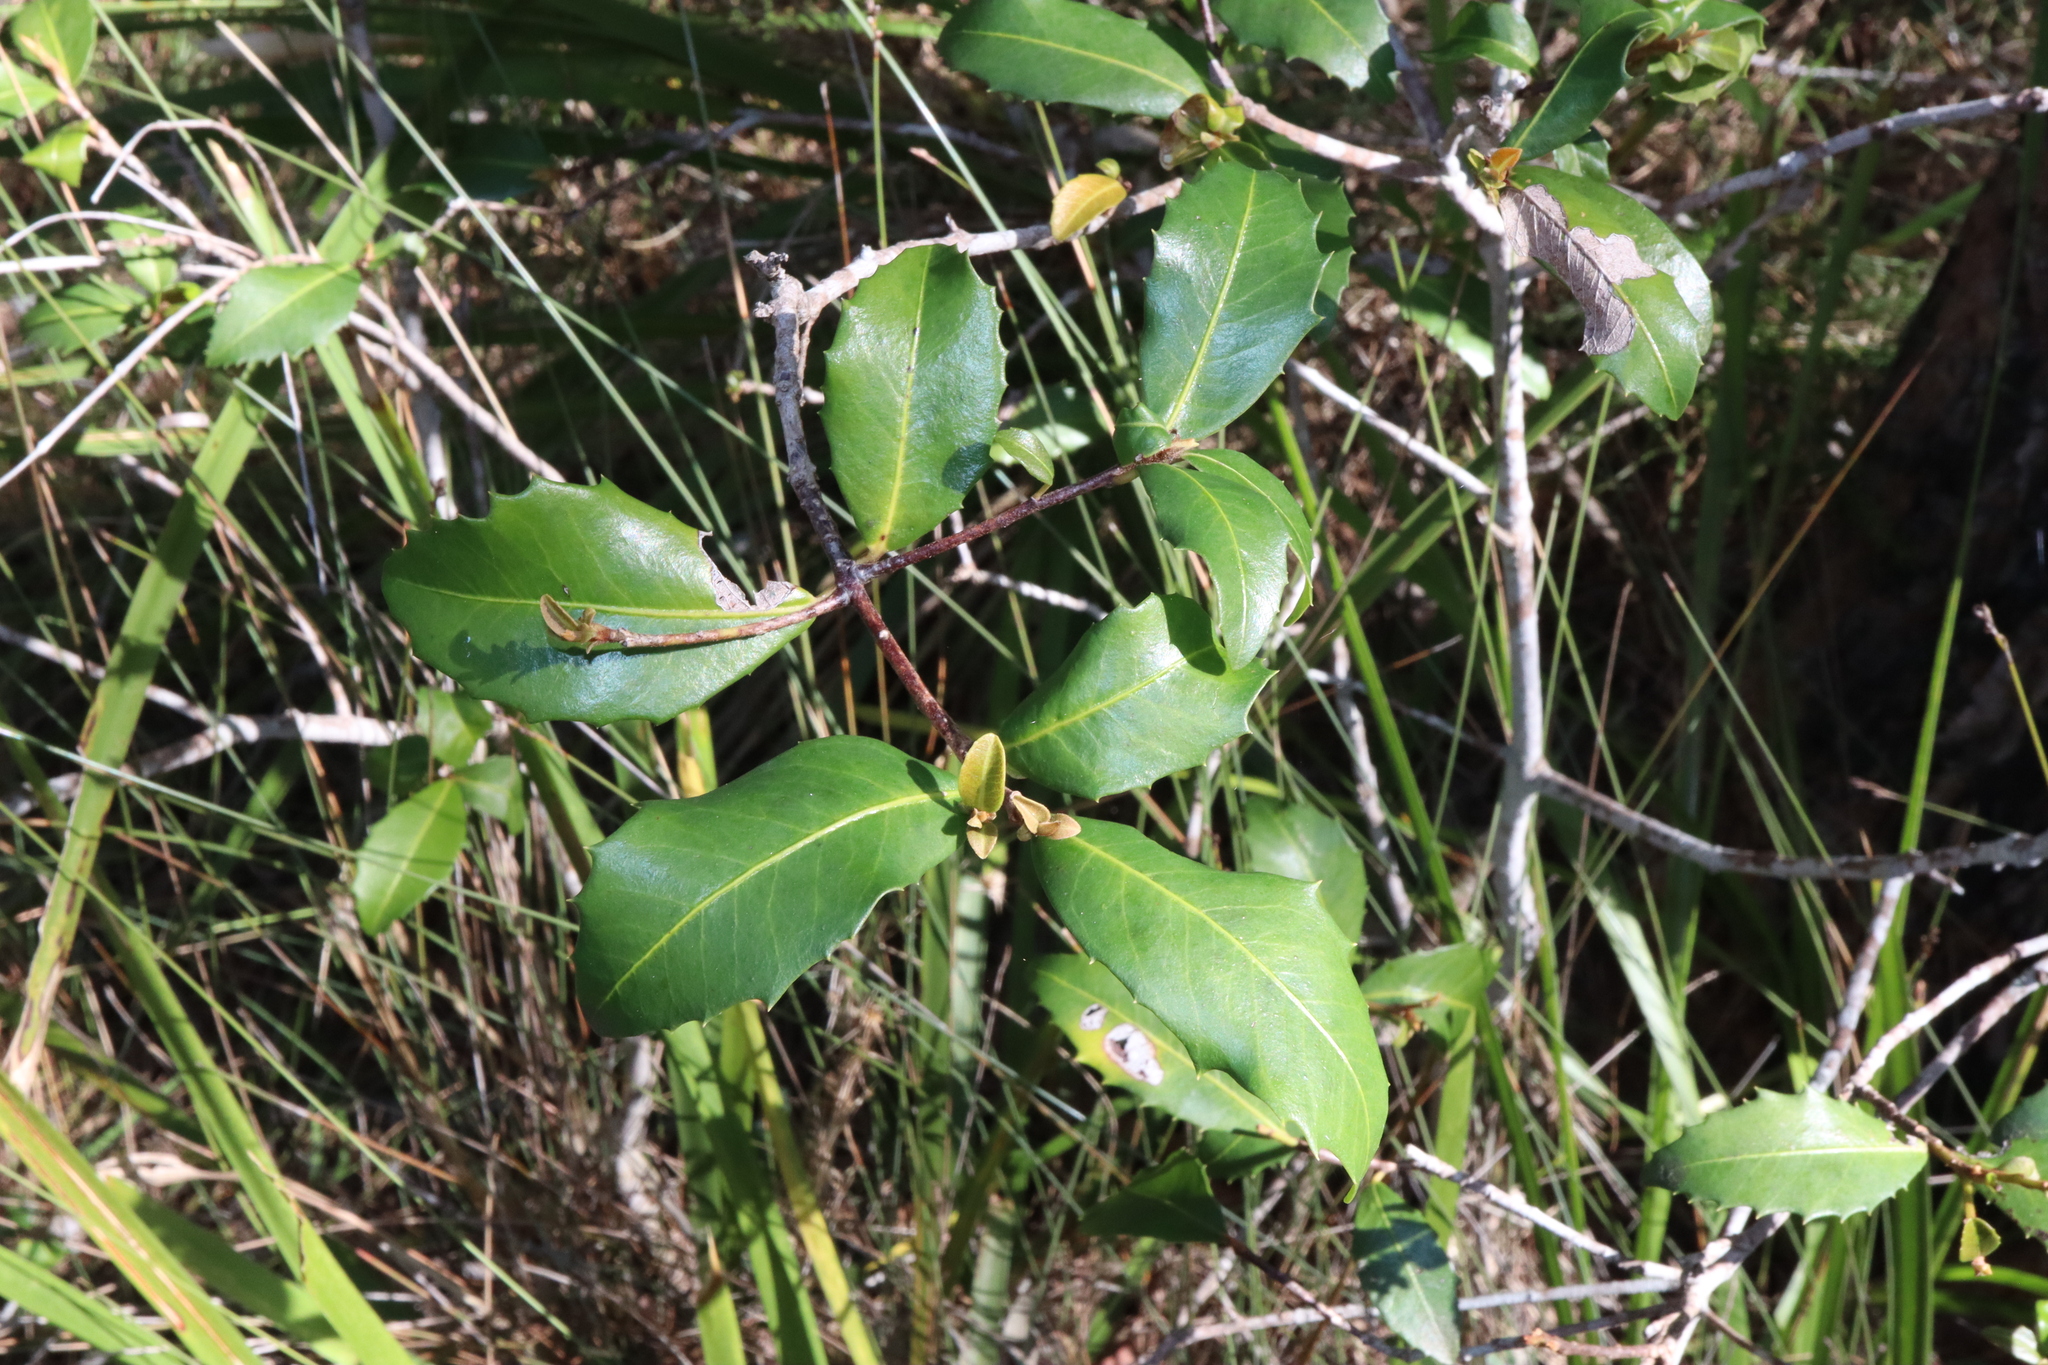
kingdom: Plantae
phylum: Tracheophyta
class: Magnoliopsida
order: Ericales
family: Primulaceae
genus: Myrsine
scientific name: Myrsine variabilis
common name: Brush muttonwood
